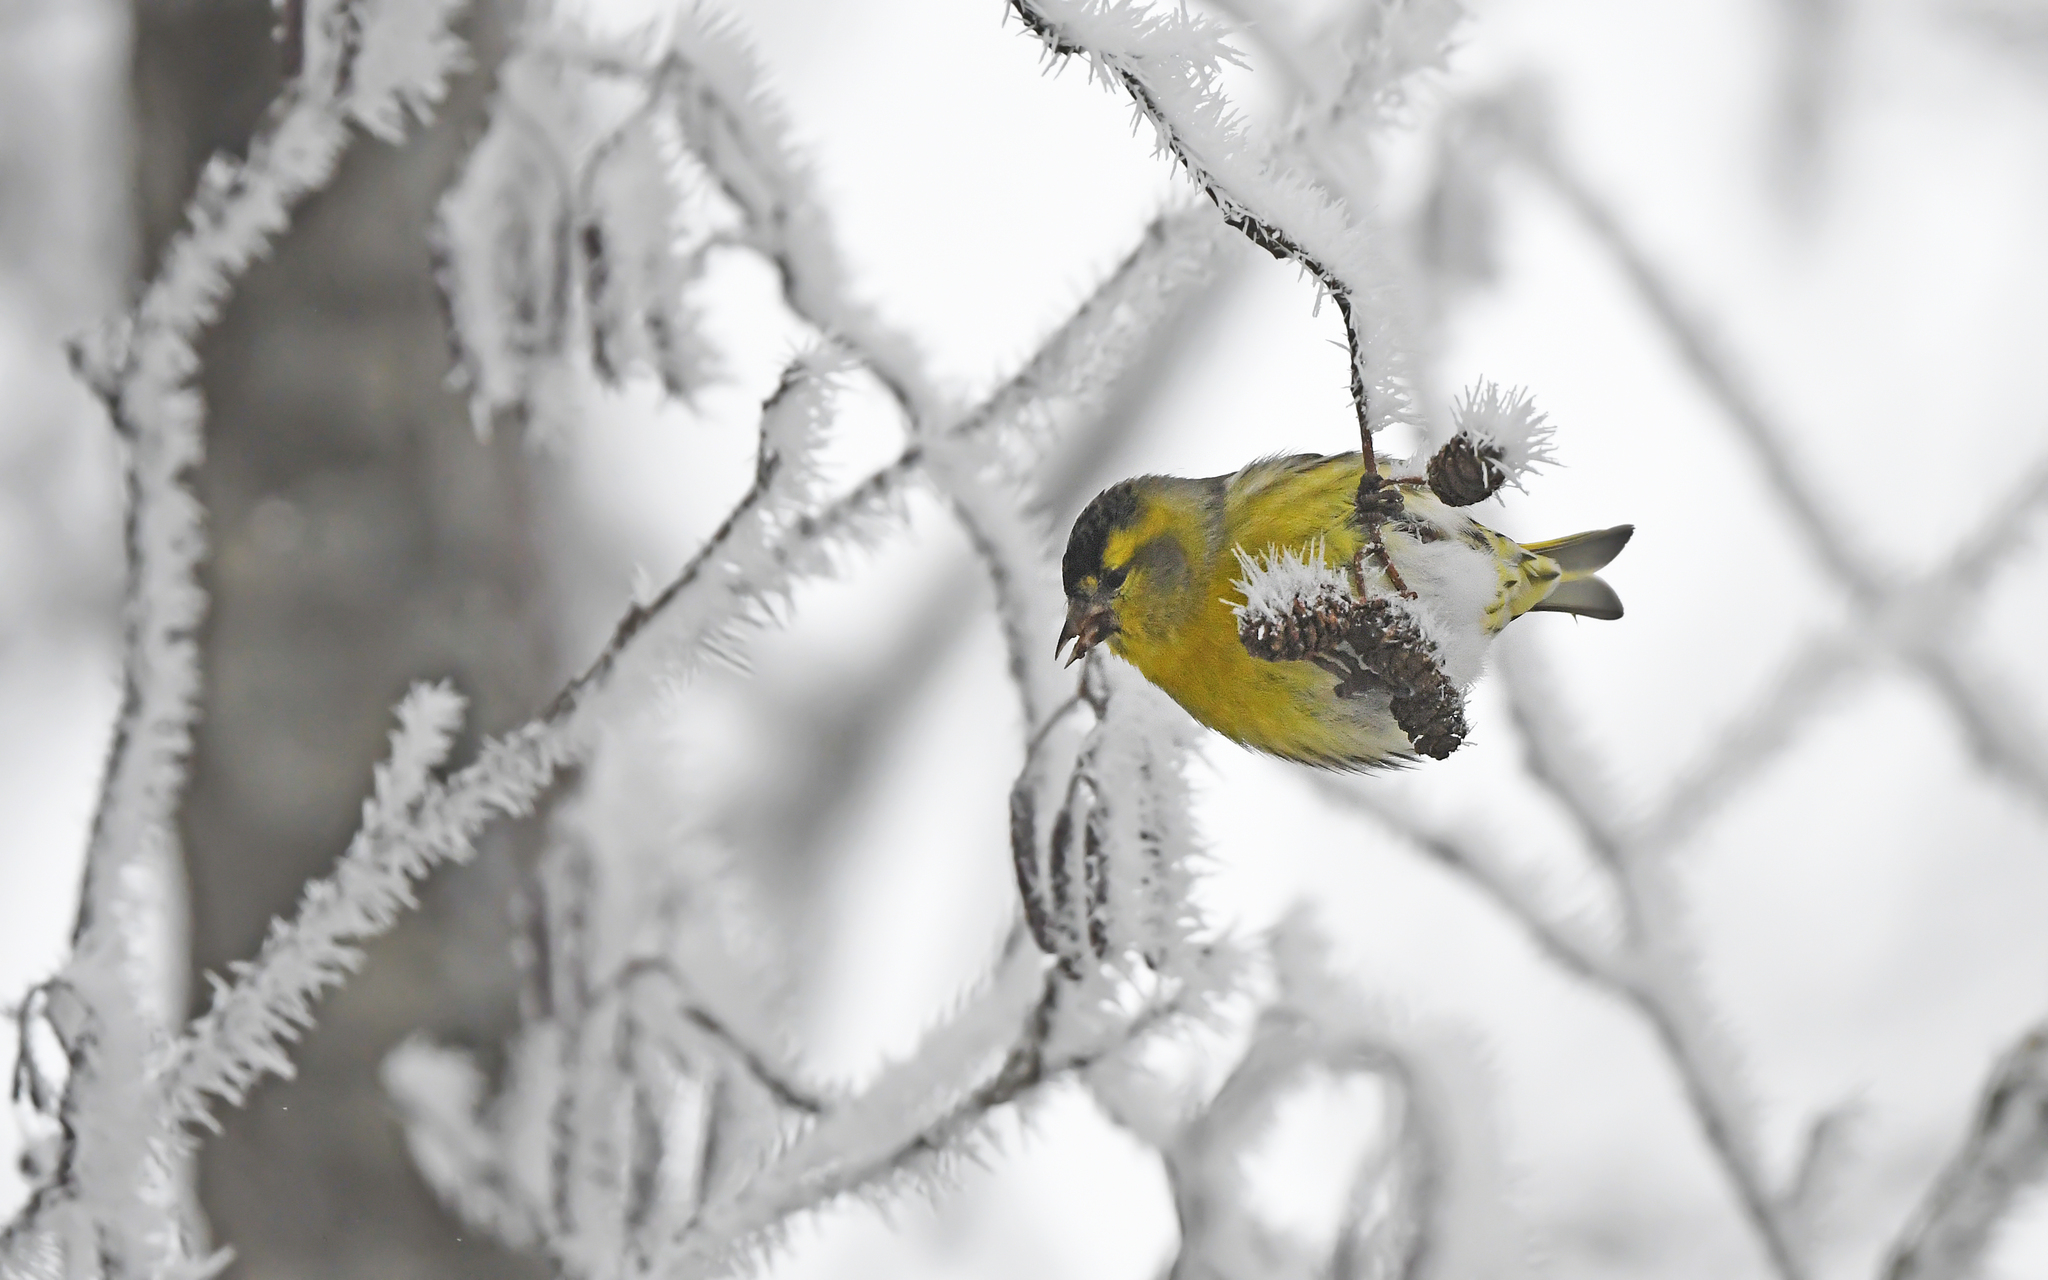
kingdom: Animalia
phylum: Chordata
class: Aves
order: Passeriformes
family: Fringillidae
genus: Spinus
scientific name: Spinus spinus
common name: Eurasian siskin
